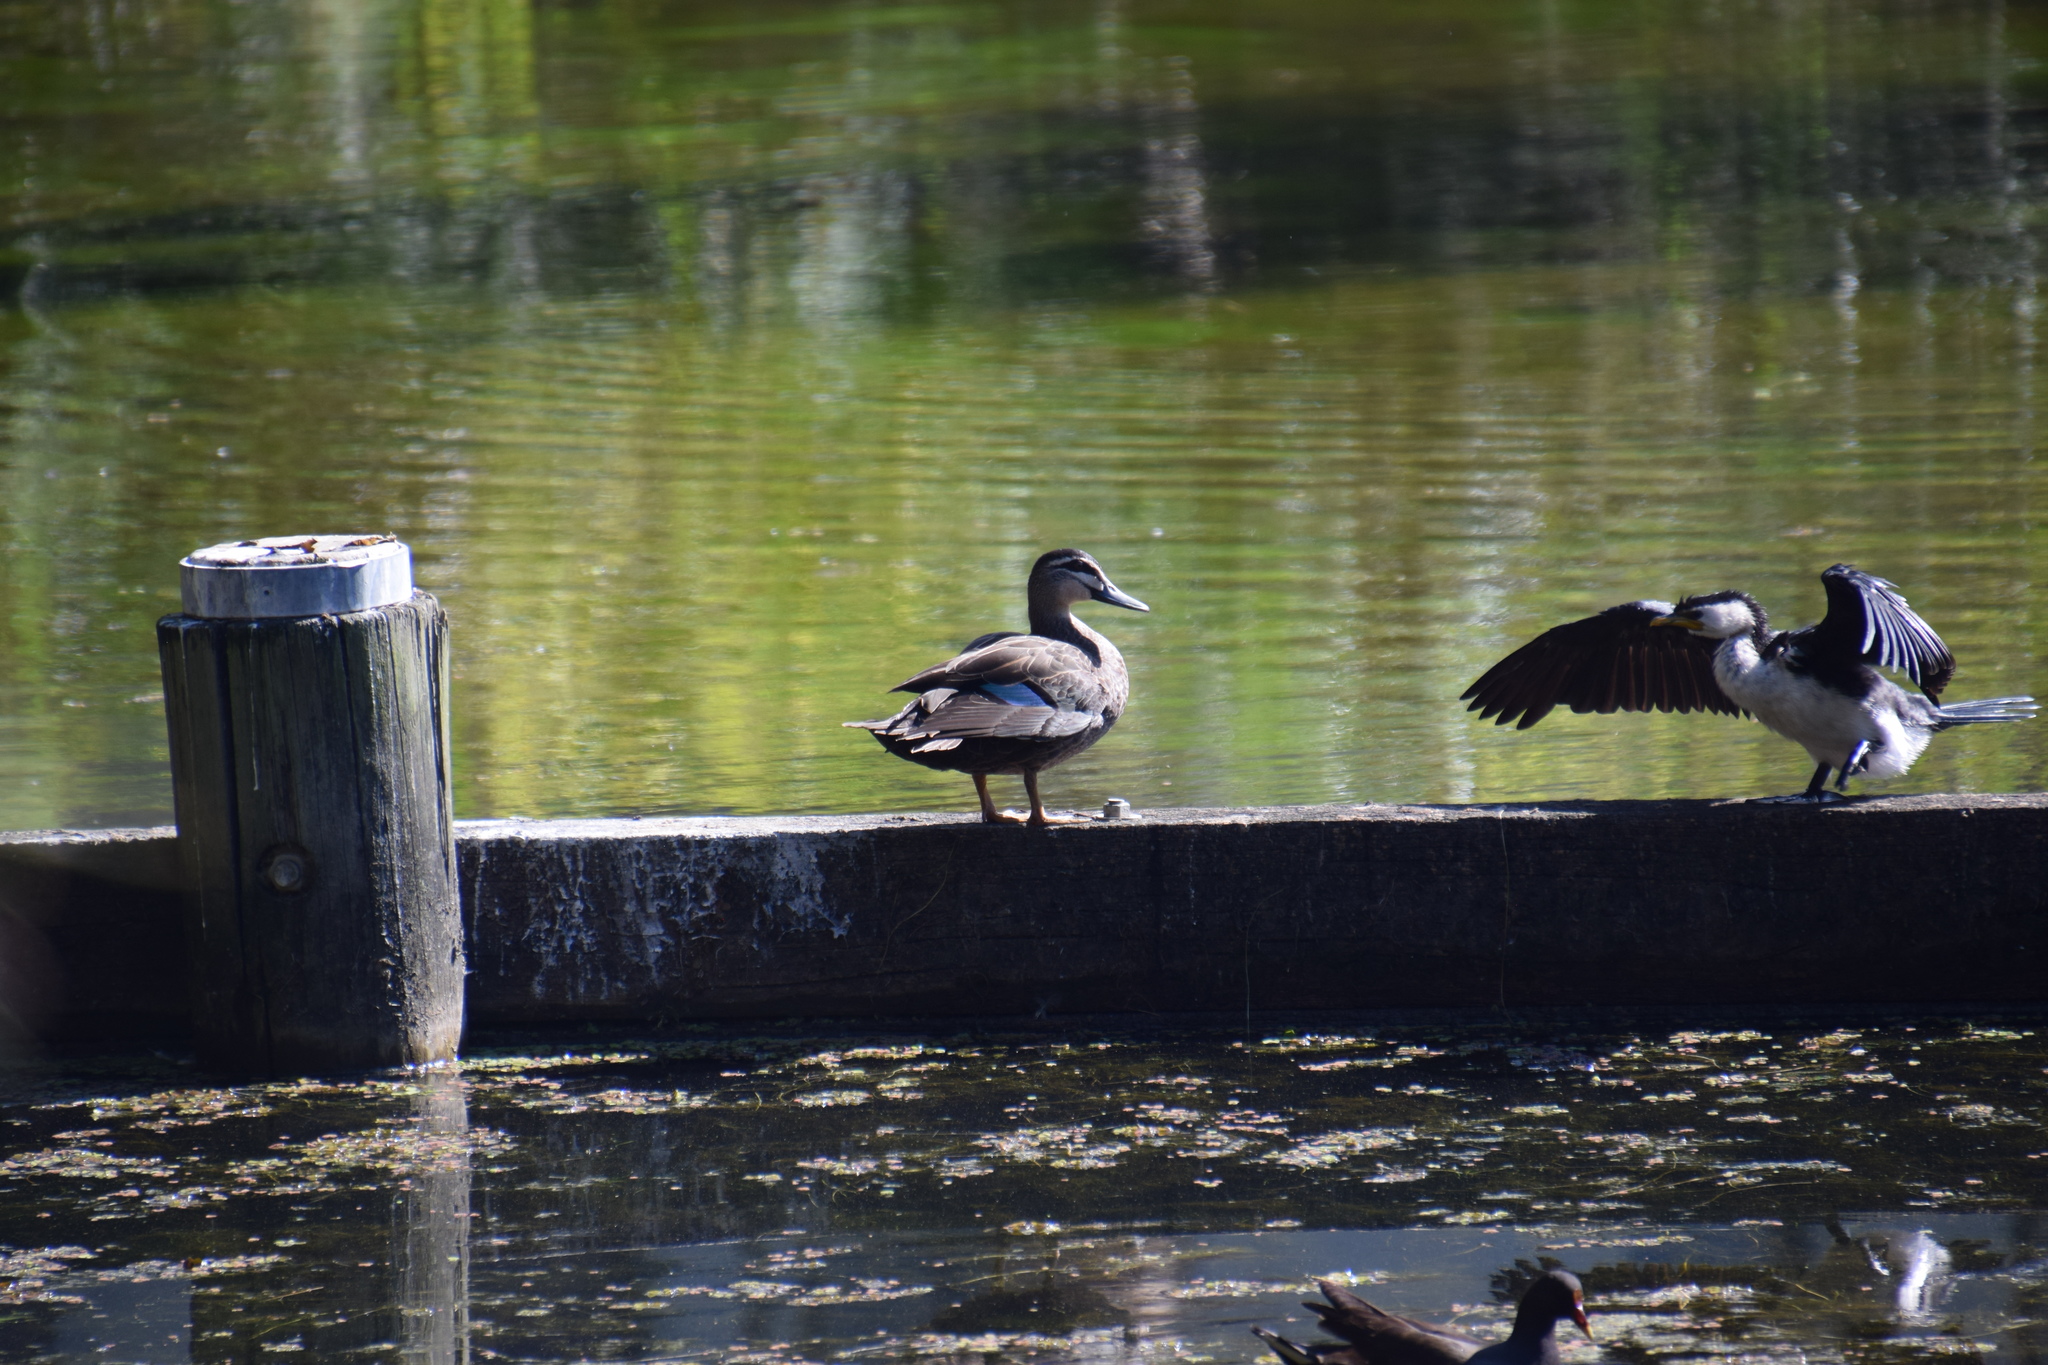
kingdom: Animalia
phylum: Chordata
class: Aves
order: Anseriformes
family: Anatidae
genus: Anas
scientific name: Anas superciliosa
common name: Pacific black duck
